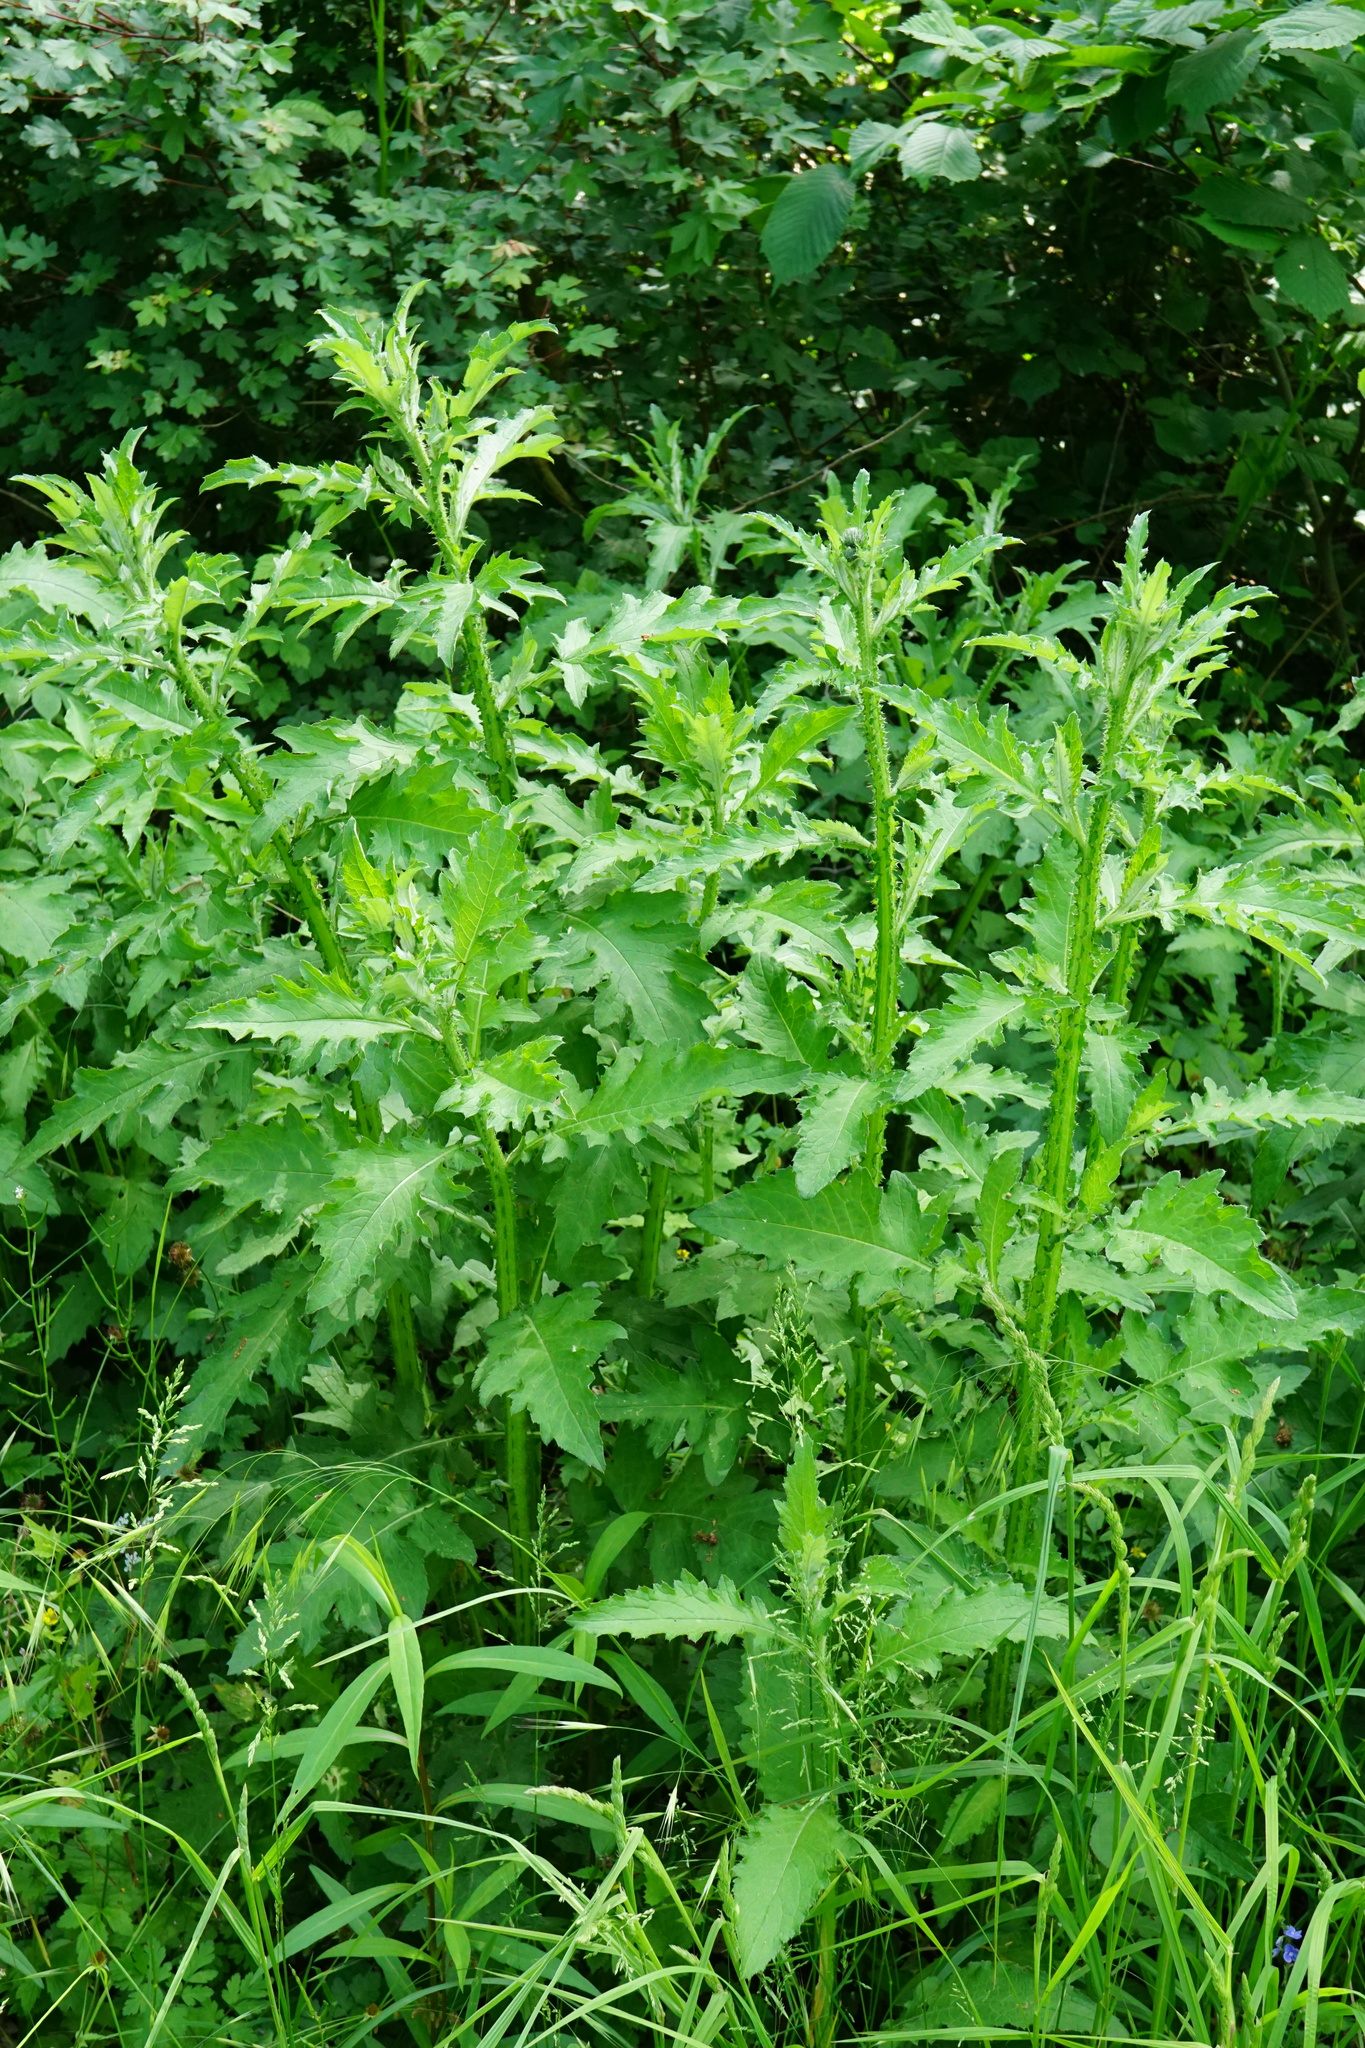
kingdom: Plantae
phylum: Tracheophyta
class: Magnoliopsida
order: Asterales
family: Asteraceae
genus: Carduus
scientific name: Carduus crispus
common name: Welted thistle
